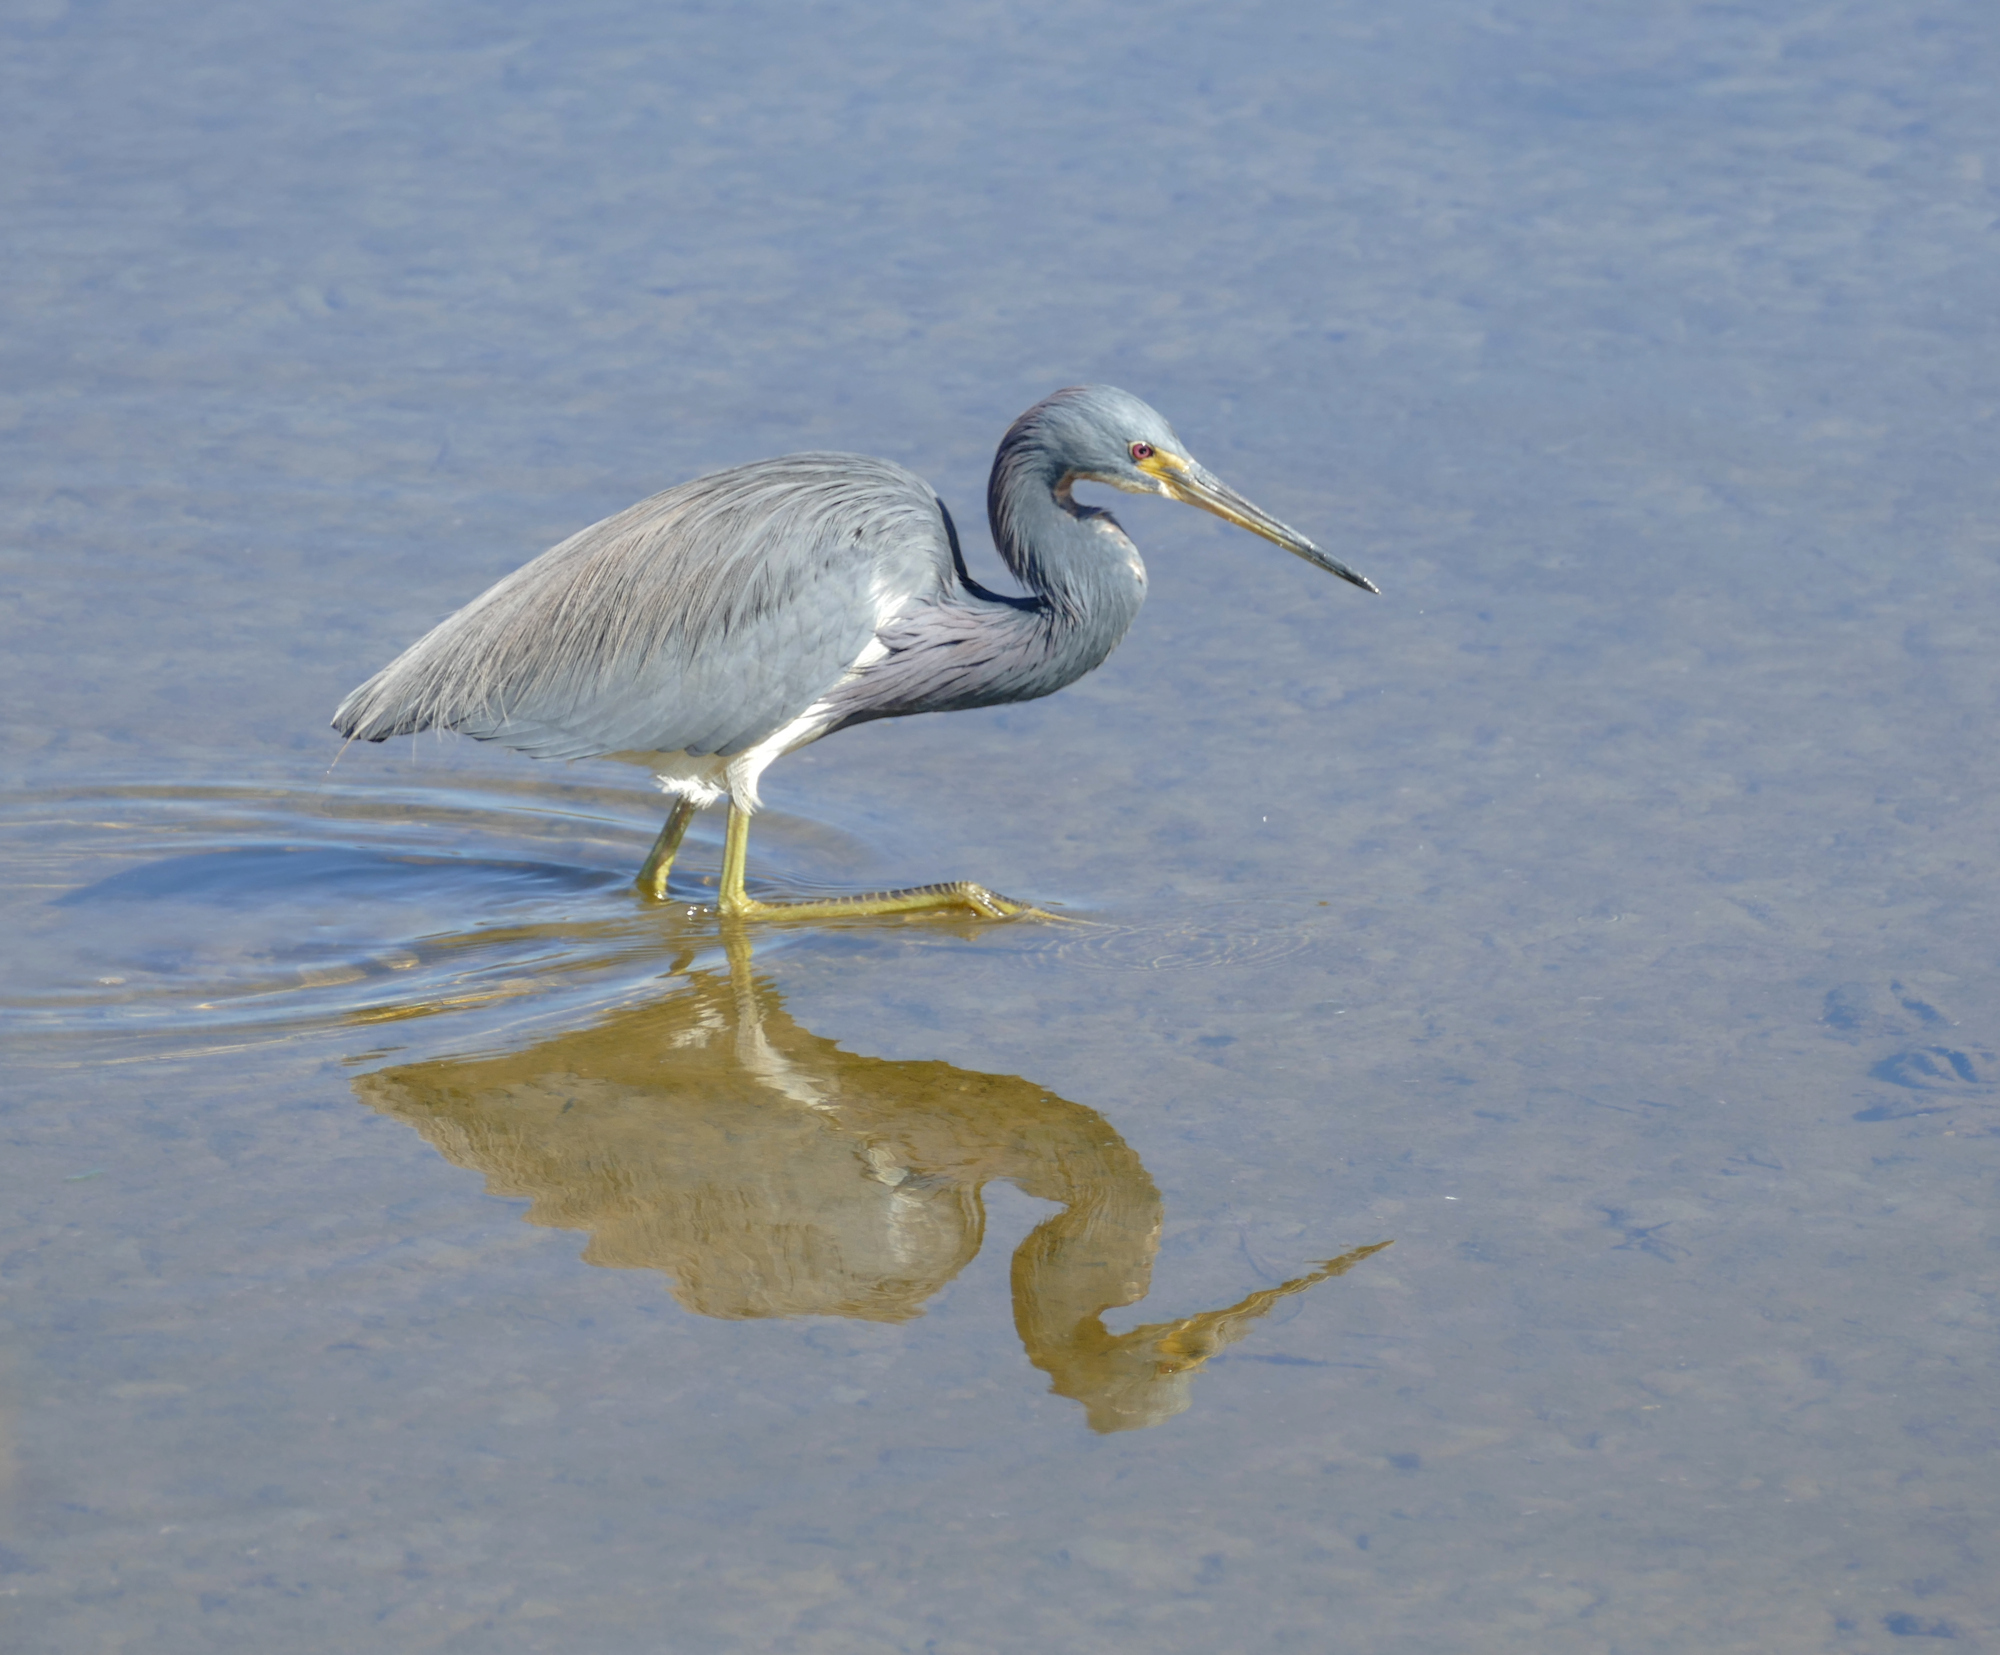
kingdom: Animalia
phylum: Chordata
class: Aves
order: Pelecaniformes
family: Ardeidae
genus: Egretta
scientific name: Egretta tricolor
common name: Tricolored heron
